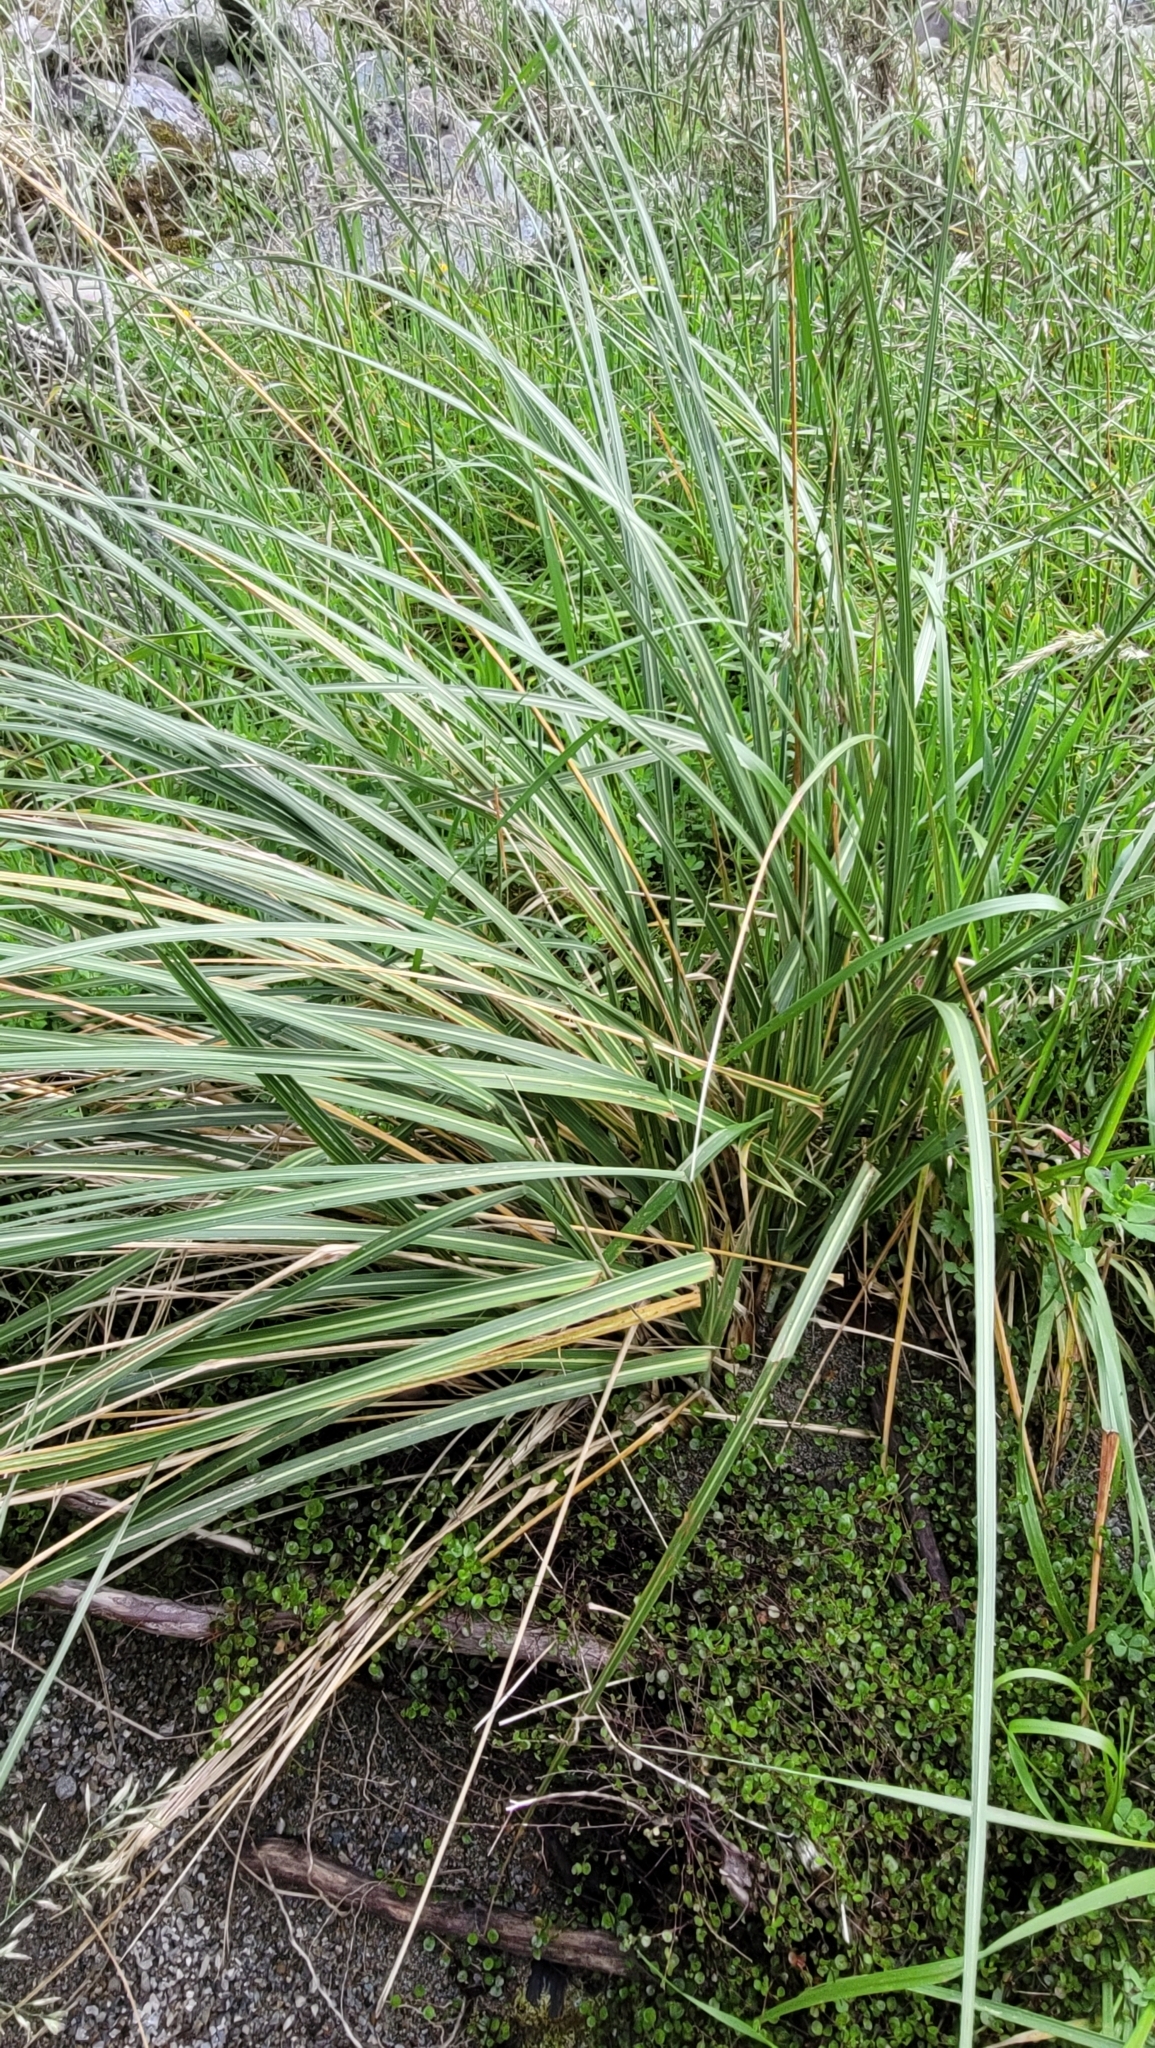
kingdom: Plantae
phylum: Tracheophyta
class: Liliopsida
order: Poales
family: Poaceae
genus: Austroderia
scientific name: Austroderia richardii
